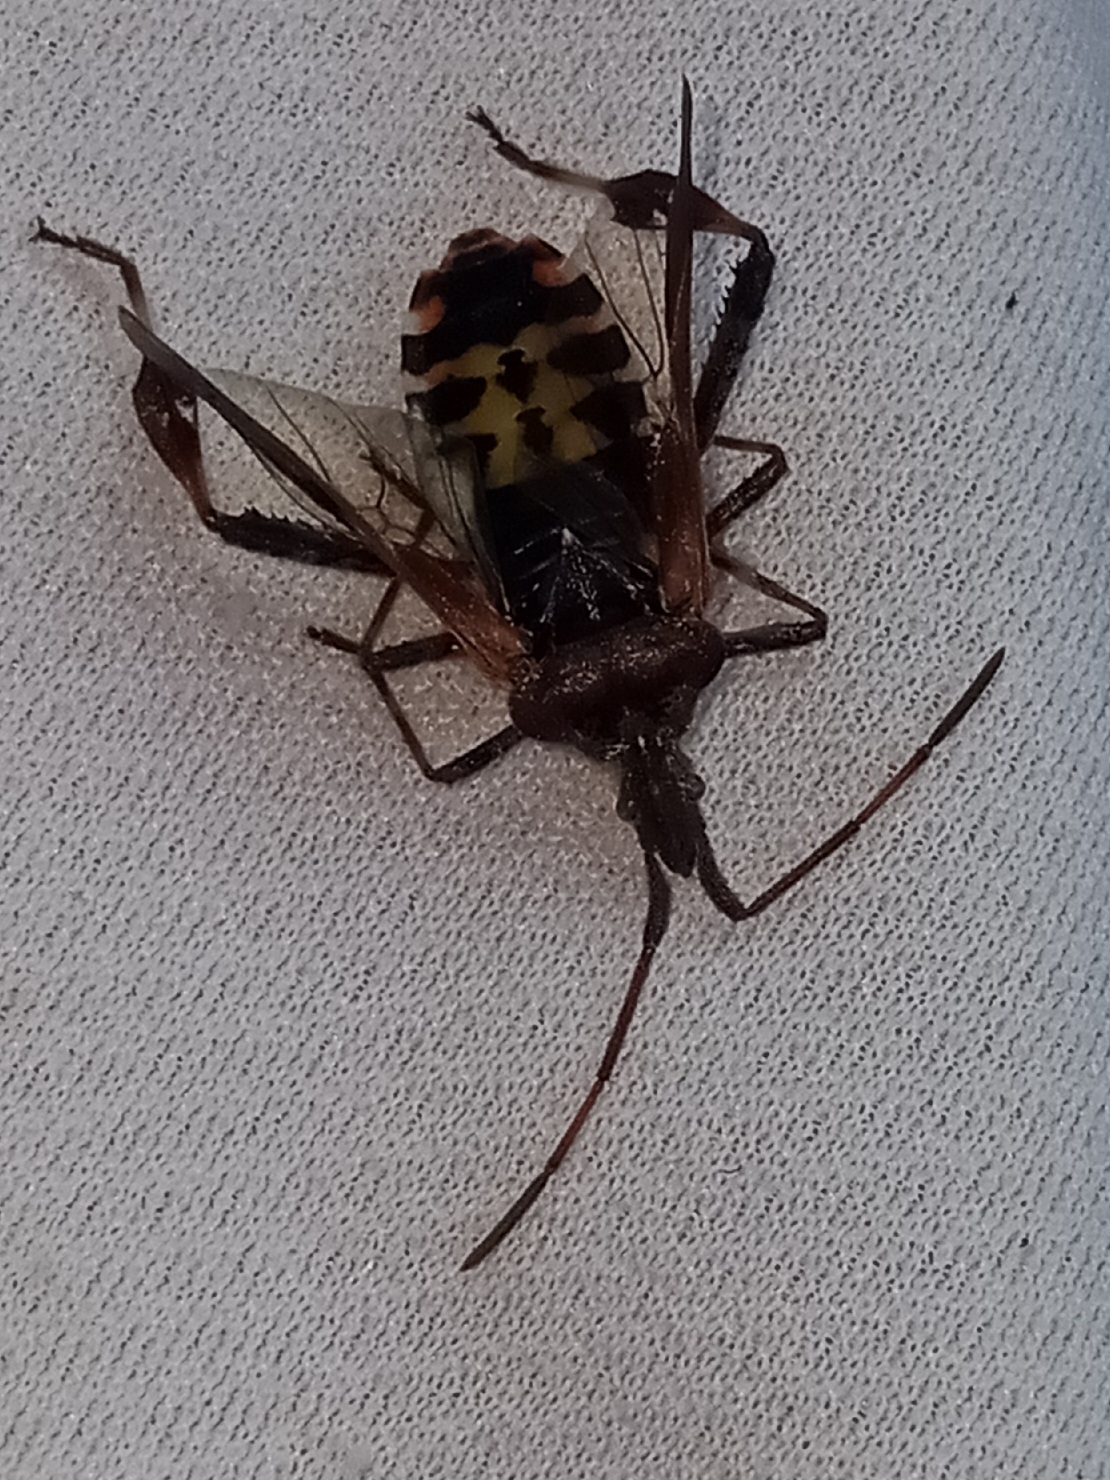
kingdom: Animalia
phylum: Arthropoda
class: Insecta
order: Hemiptera
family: Coreidae
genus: Leptoglossus
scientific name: Leptoglossus occidentalis
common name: Western conifer-seed bug
